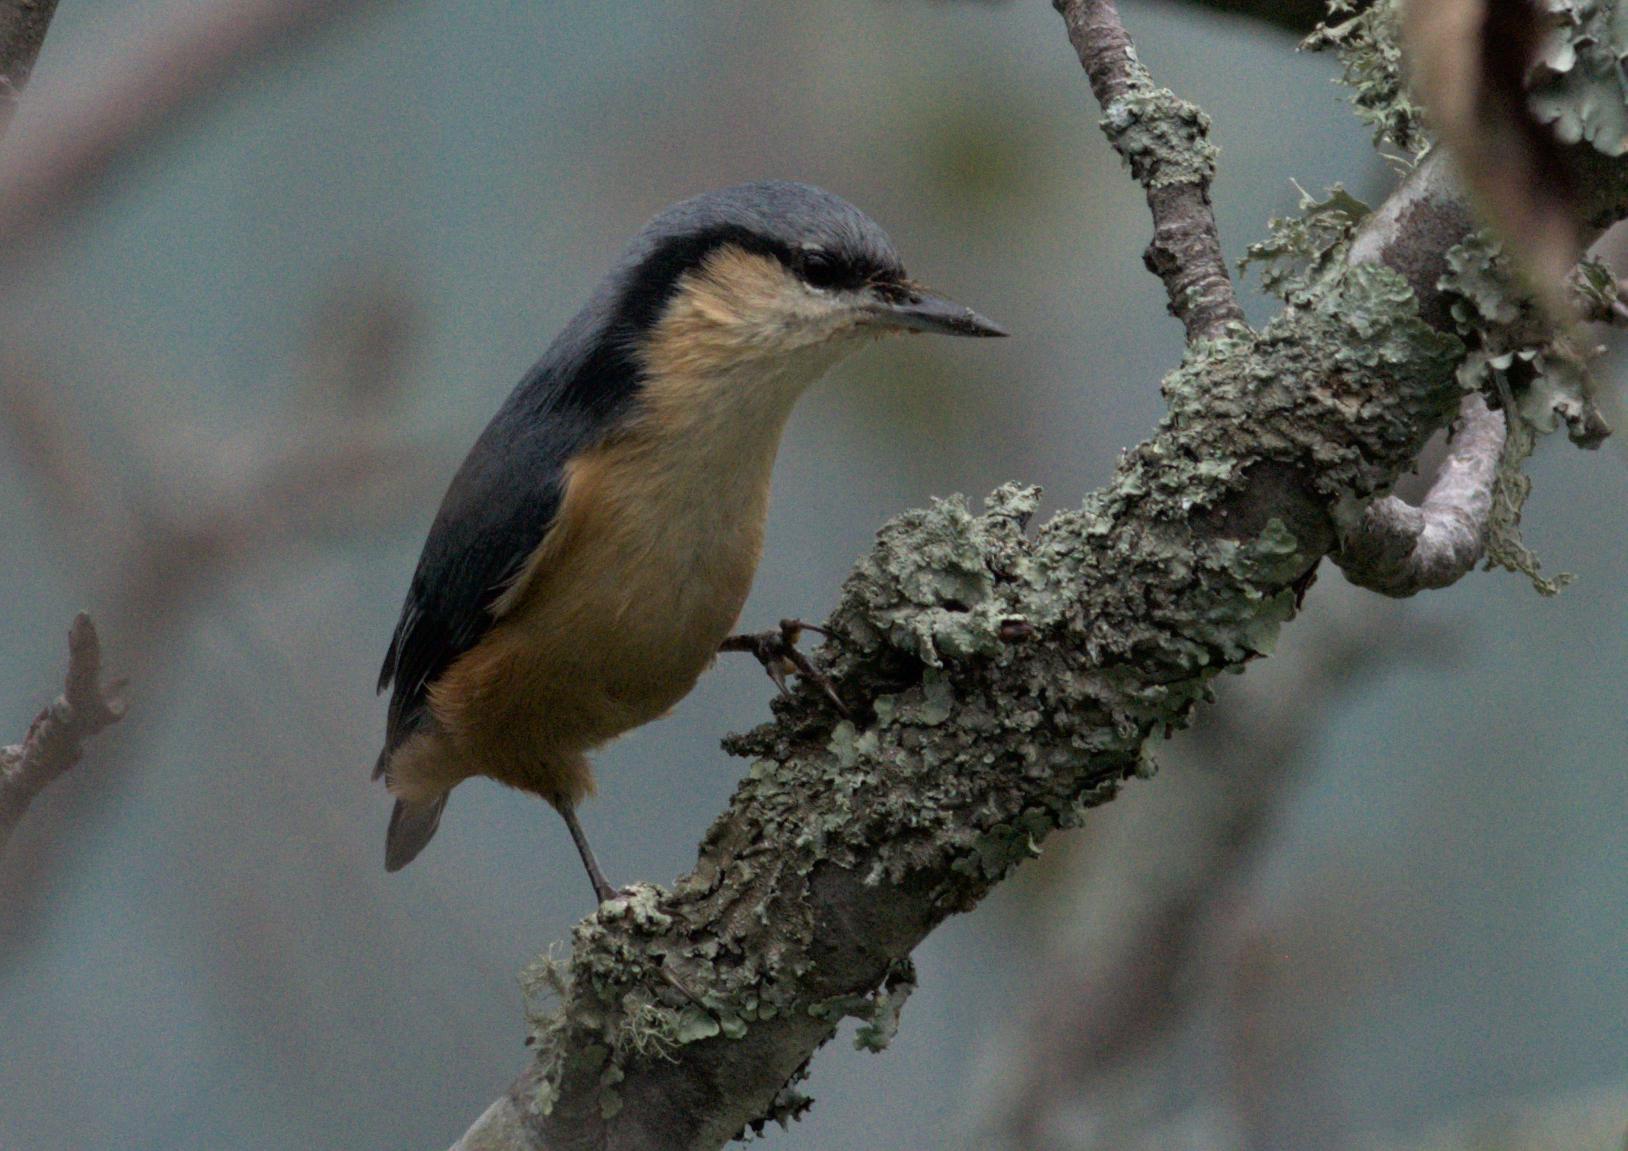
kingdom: Animalia
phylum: Chordata
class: Aves
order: Passeriformes
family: Sittidae
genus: Sitta
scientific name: Sitta himalayensis
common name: White-tailed nuthatch
